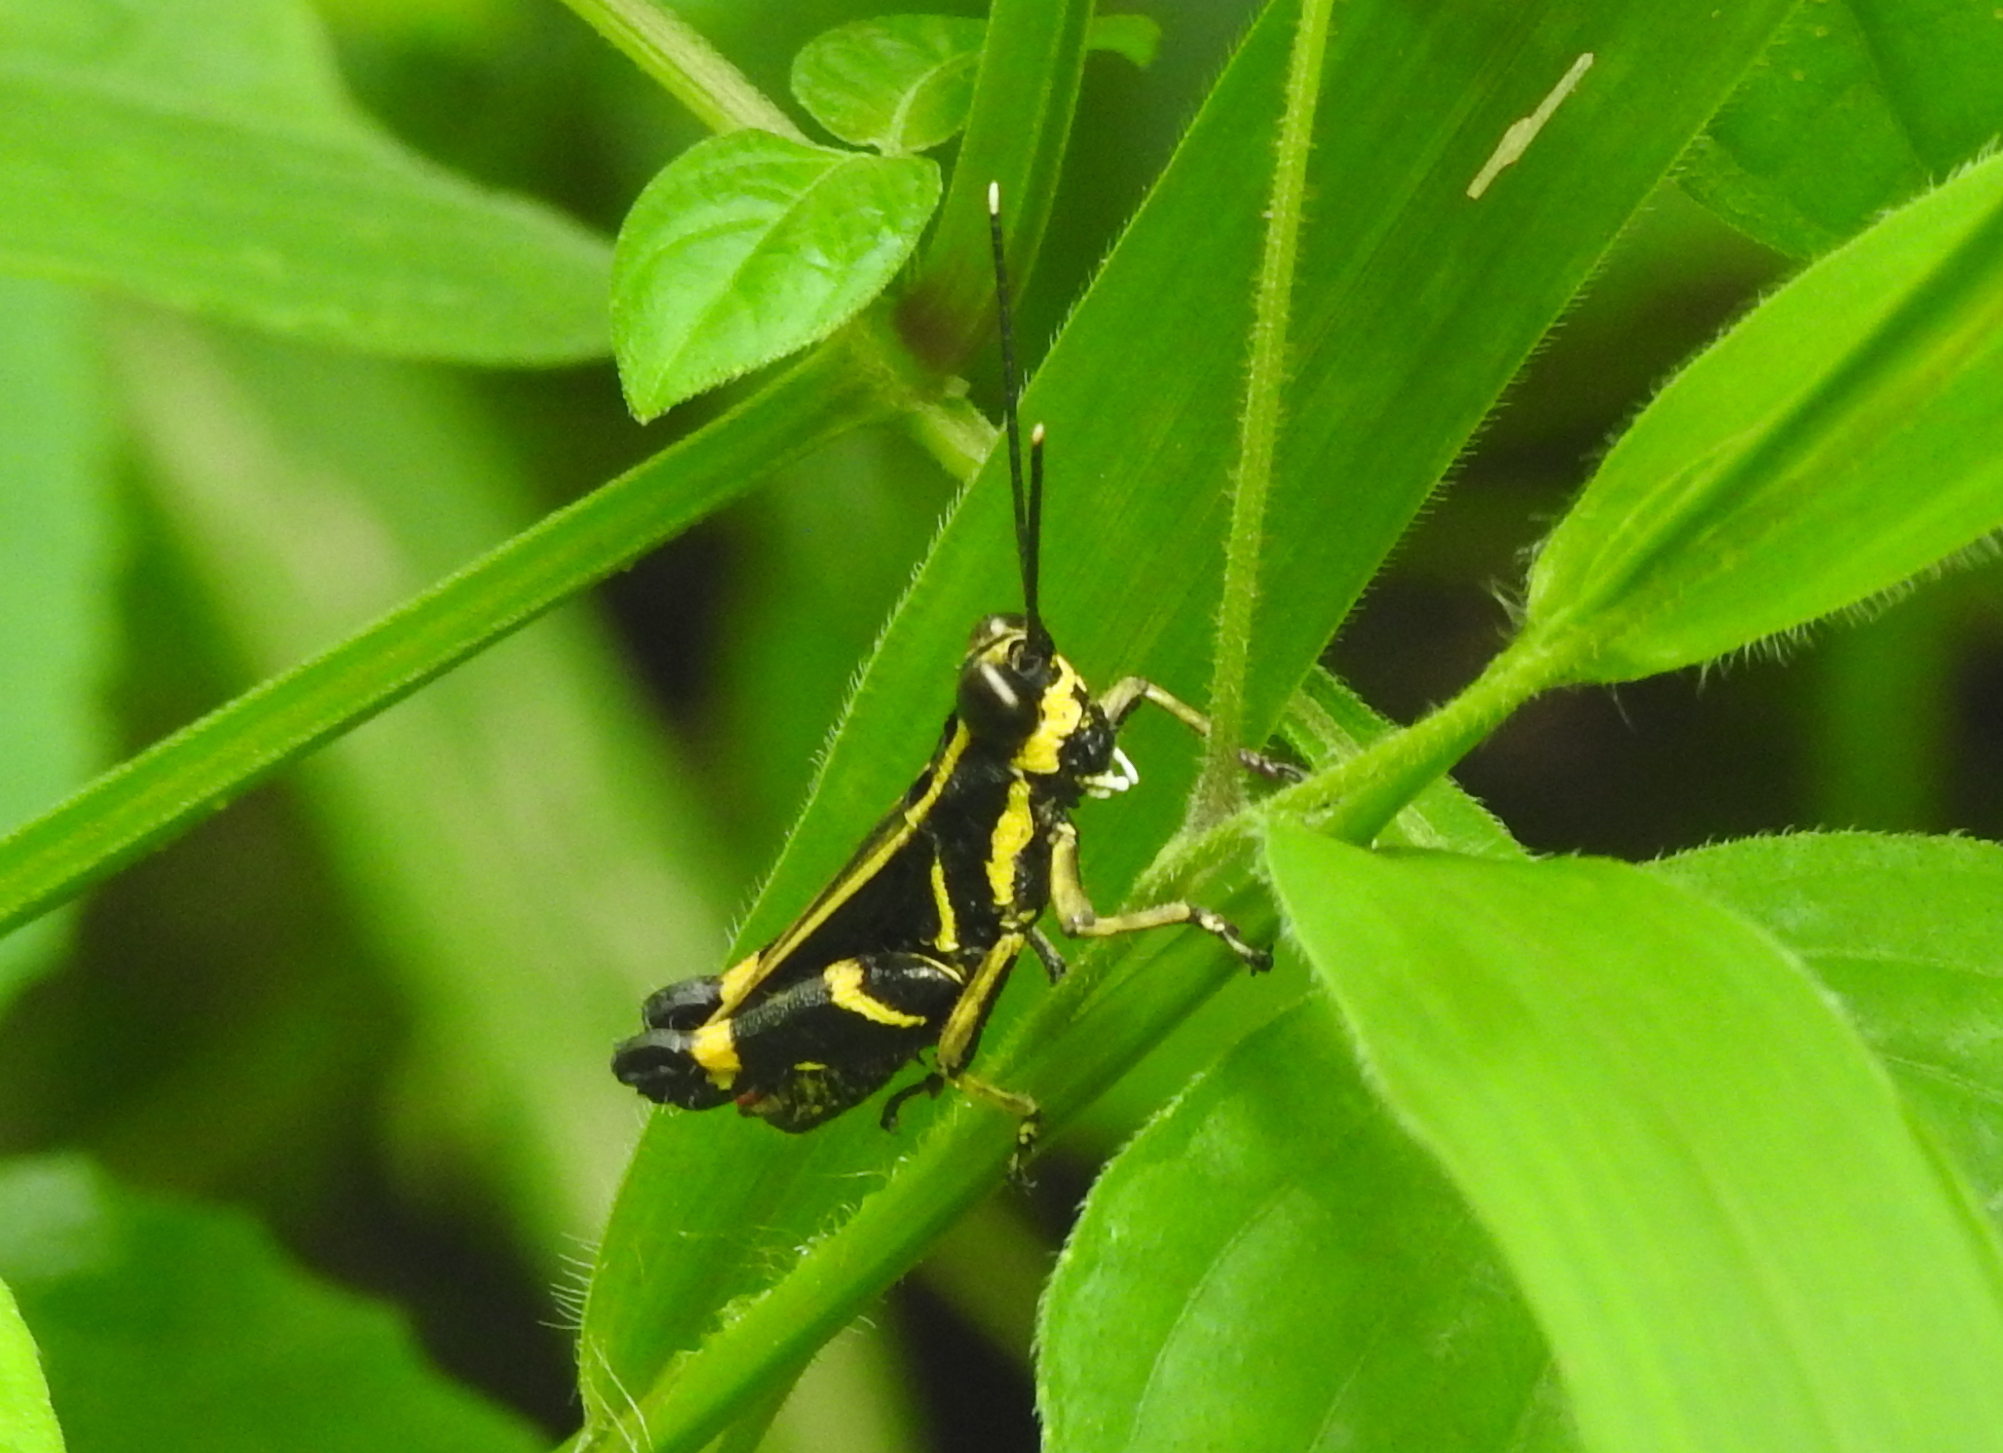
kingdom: Animalia
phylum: Arthropoda
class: Insecta
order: Orthoptera
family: Acrididae
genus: Traulia
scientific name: Traulia azureipennis
